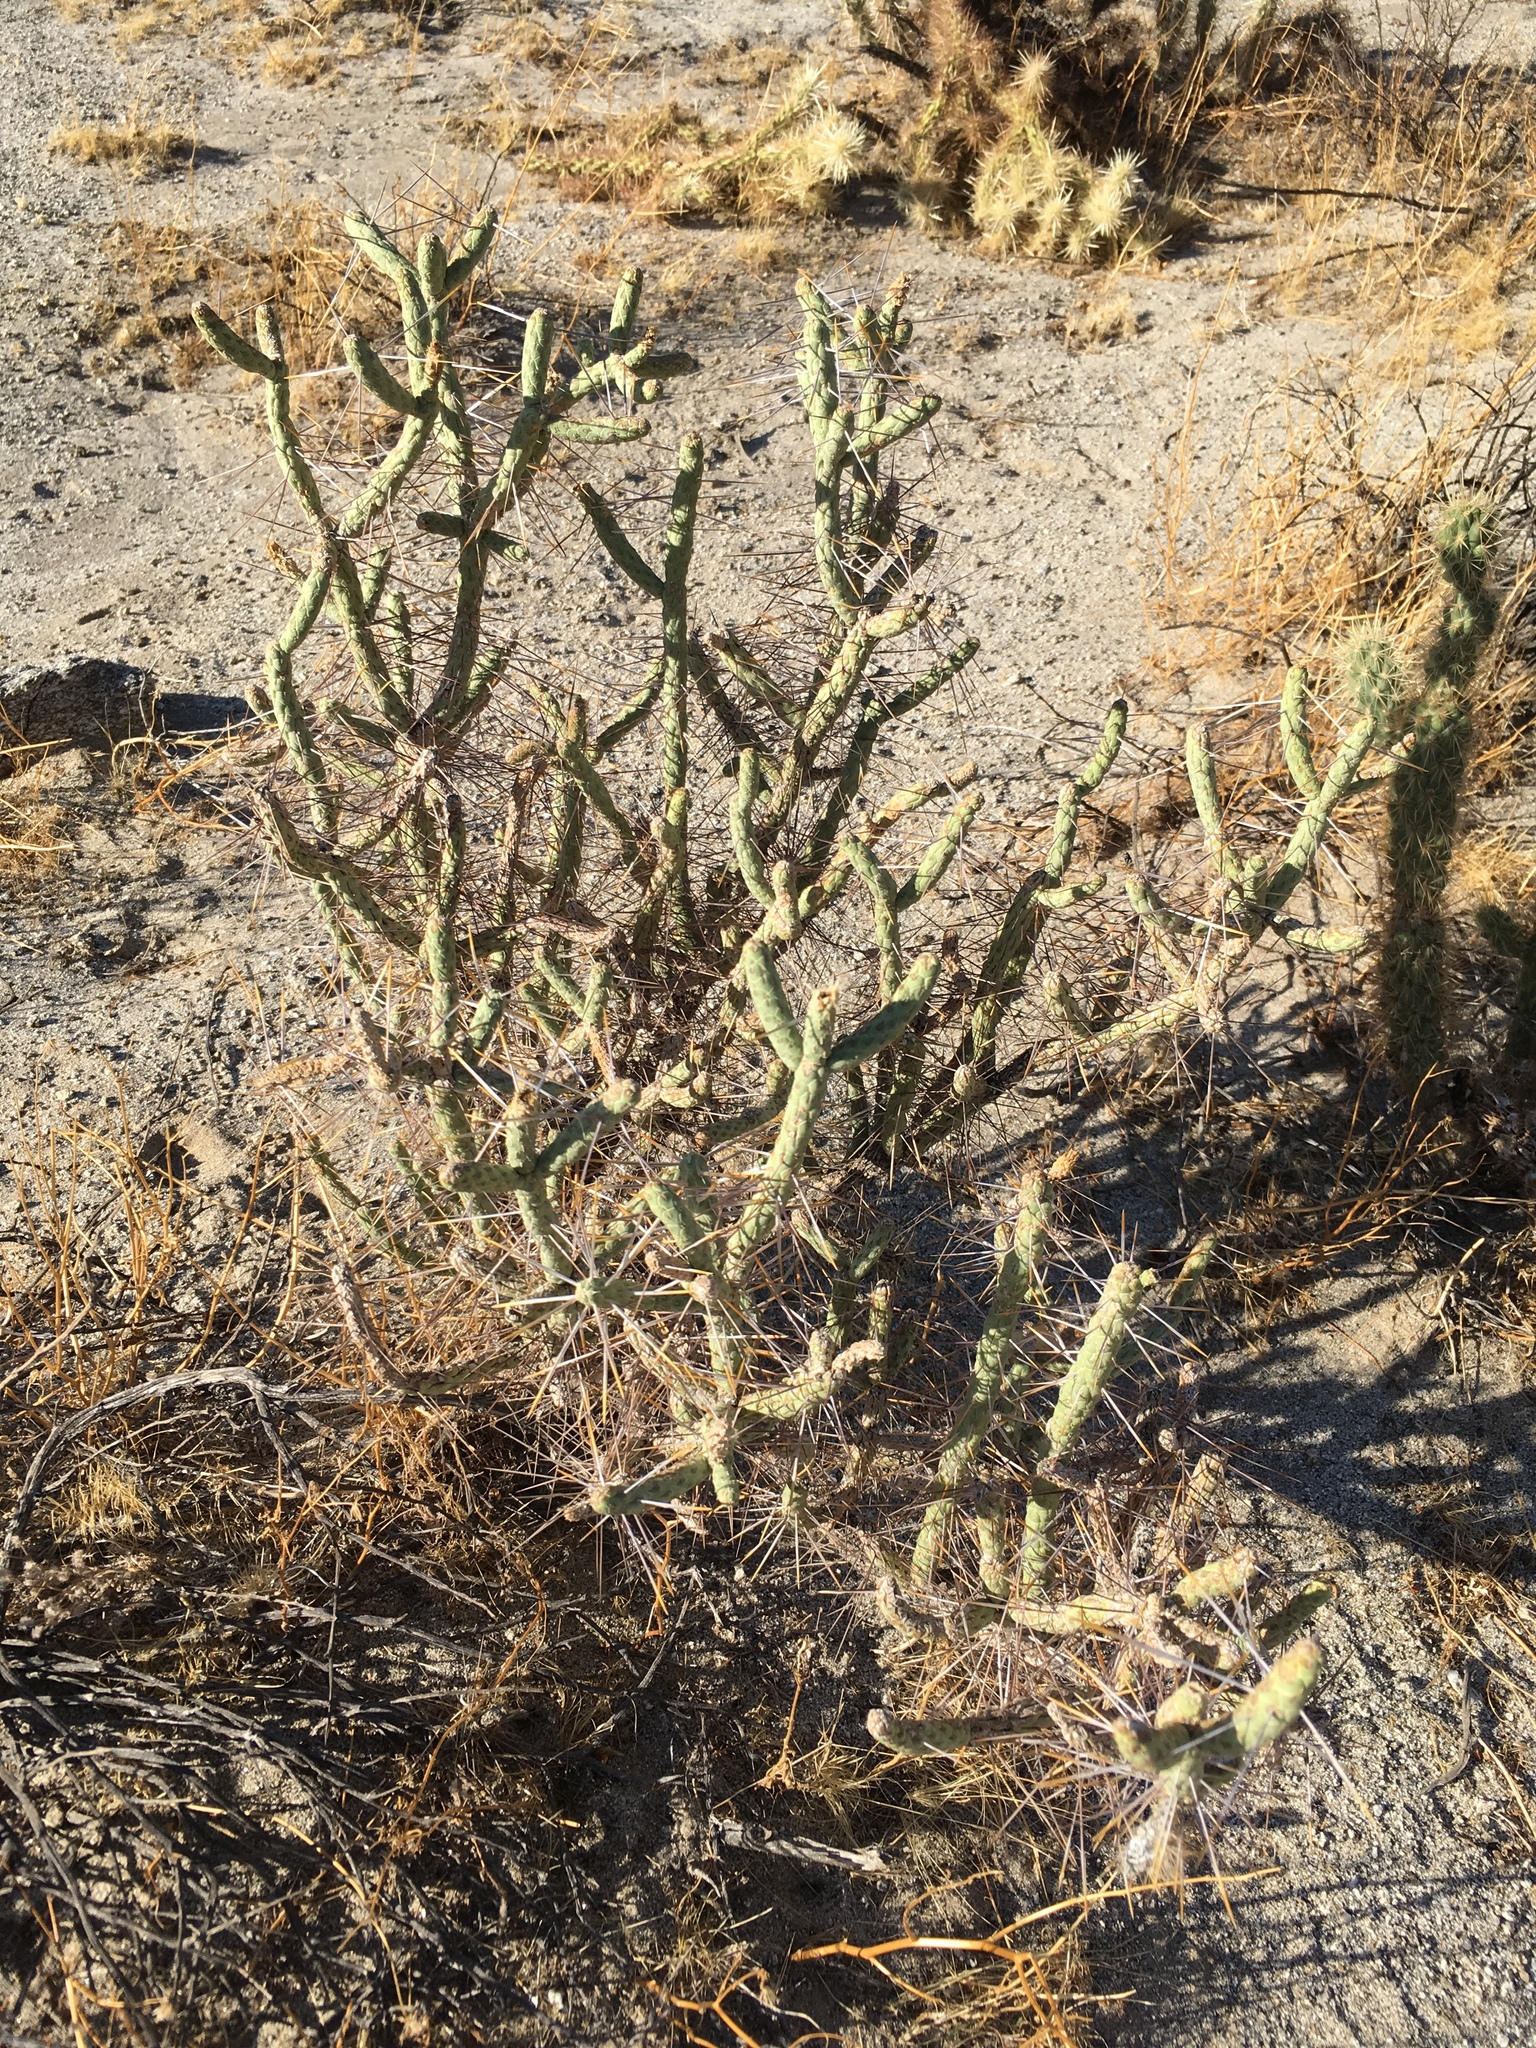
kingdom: Plantae
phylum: Tracheophyta
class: Magnoliopsida
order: Caryophyllales
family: Cactaceae
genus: Cylindropuntia
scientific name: Cylindropuntia ramosissima
